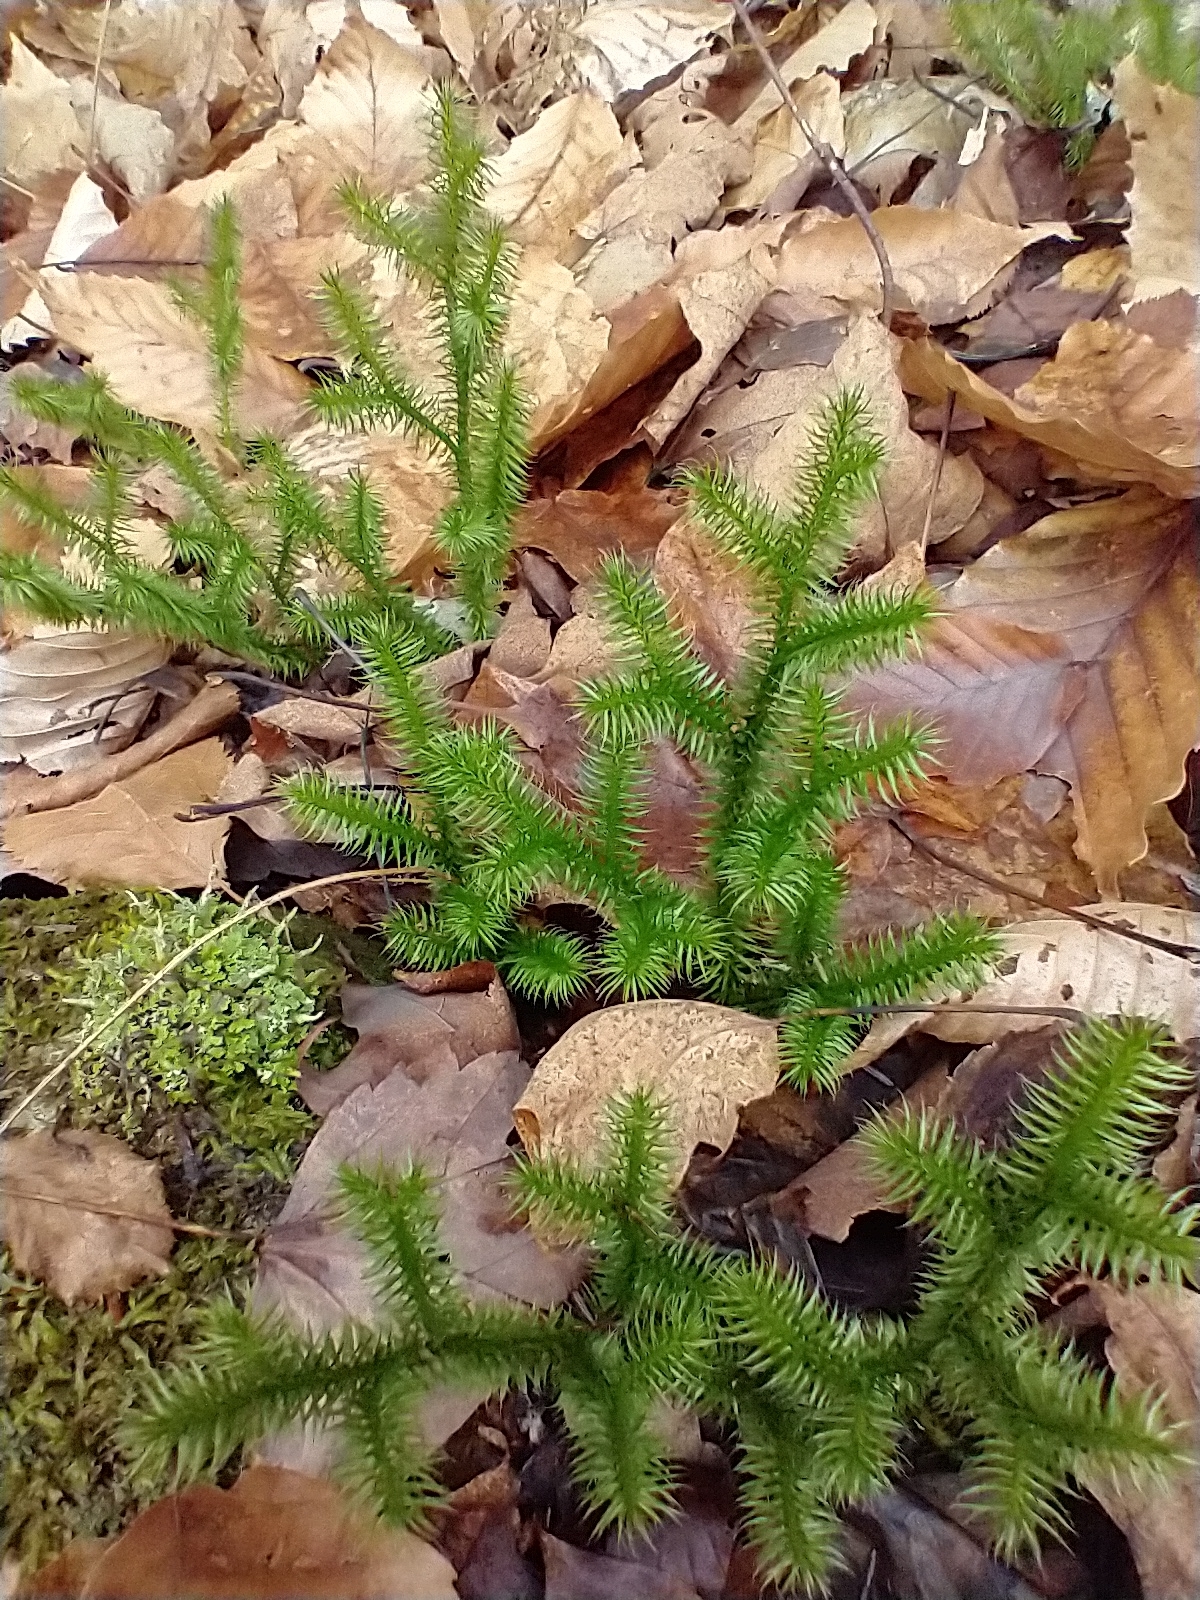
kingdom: Plantae
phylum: Tracheophyta
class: Lycopodiopsida
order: Lycopodiales
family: Lycopodiaceae
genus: Lycopodium
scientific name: Lycopodium clavatum
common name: Stag's-horn clubmoss
